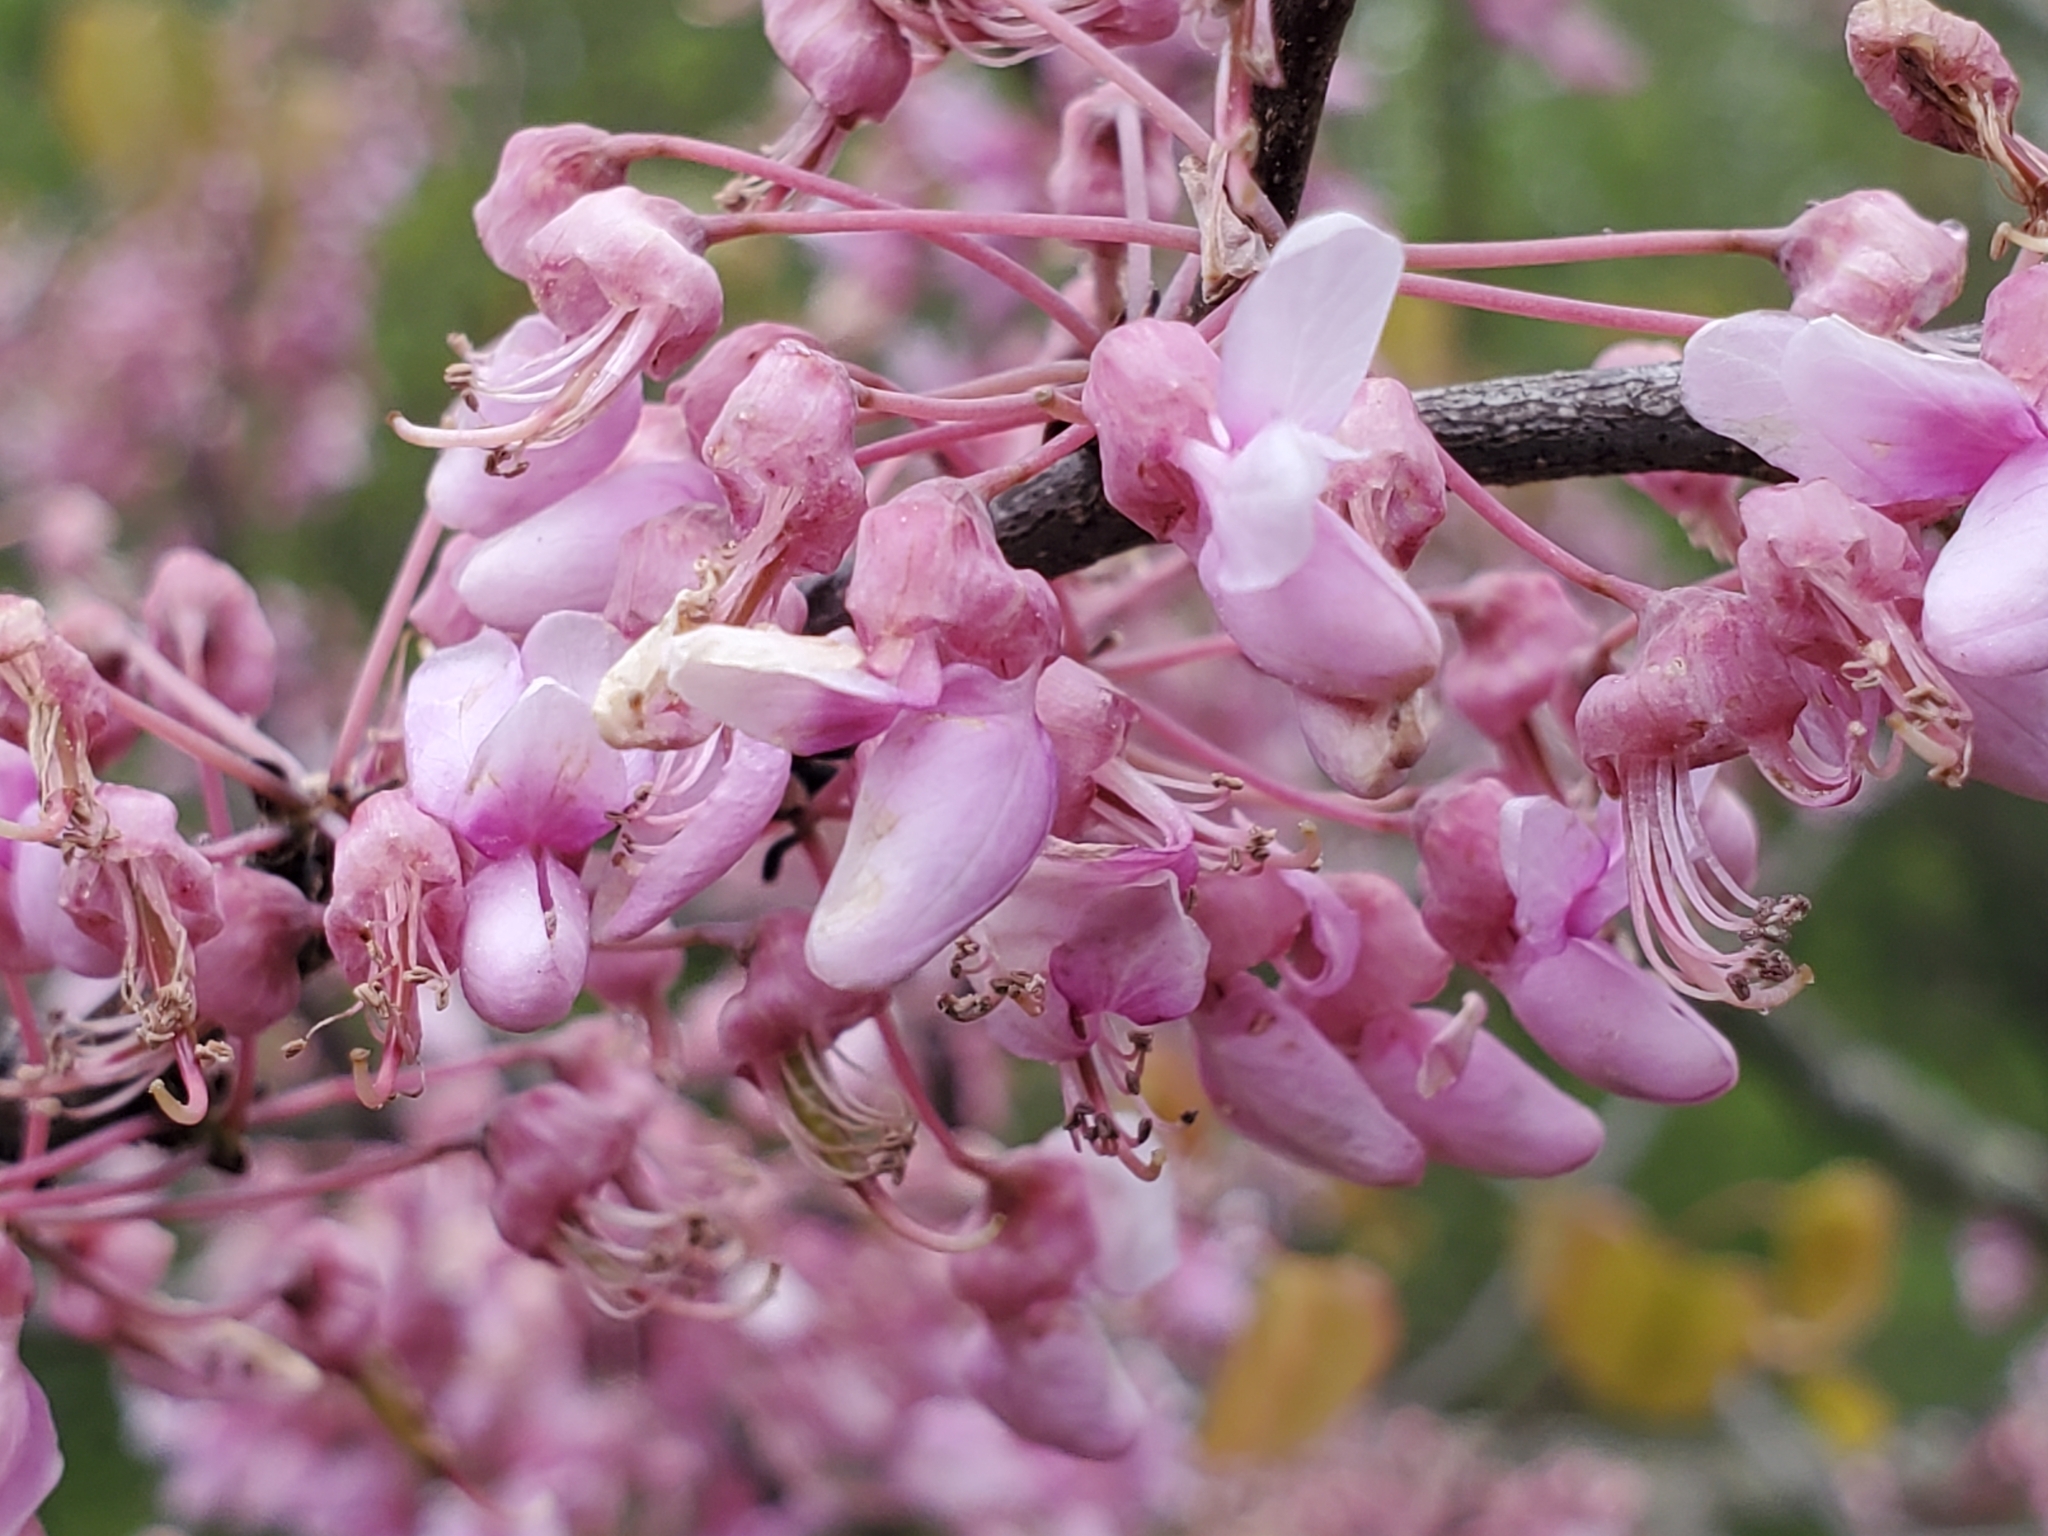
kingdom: Plantae
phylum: Tracheophyta
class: Magnoliopsida
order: Fabales
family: Fabaceae
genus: Cercis
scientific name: Cercis canadensis
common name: Eastern redbud
